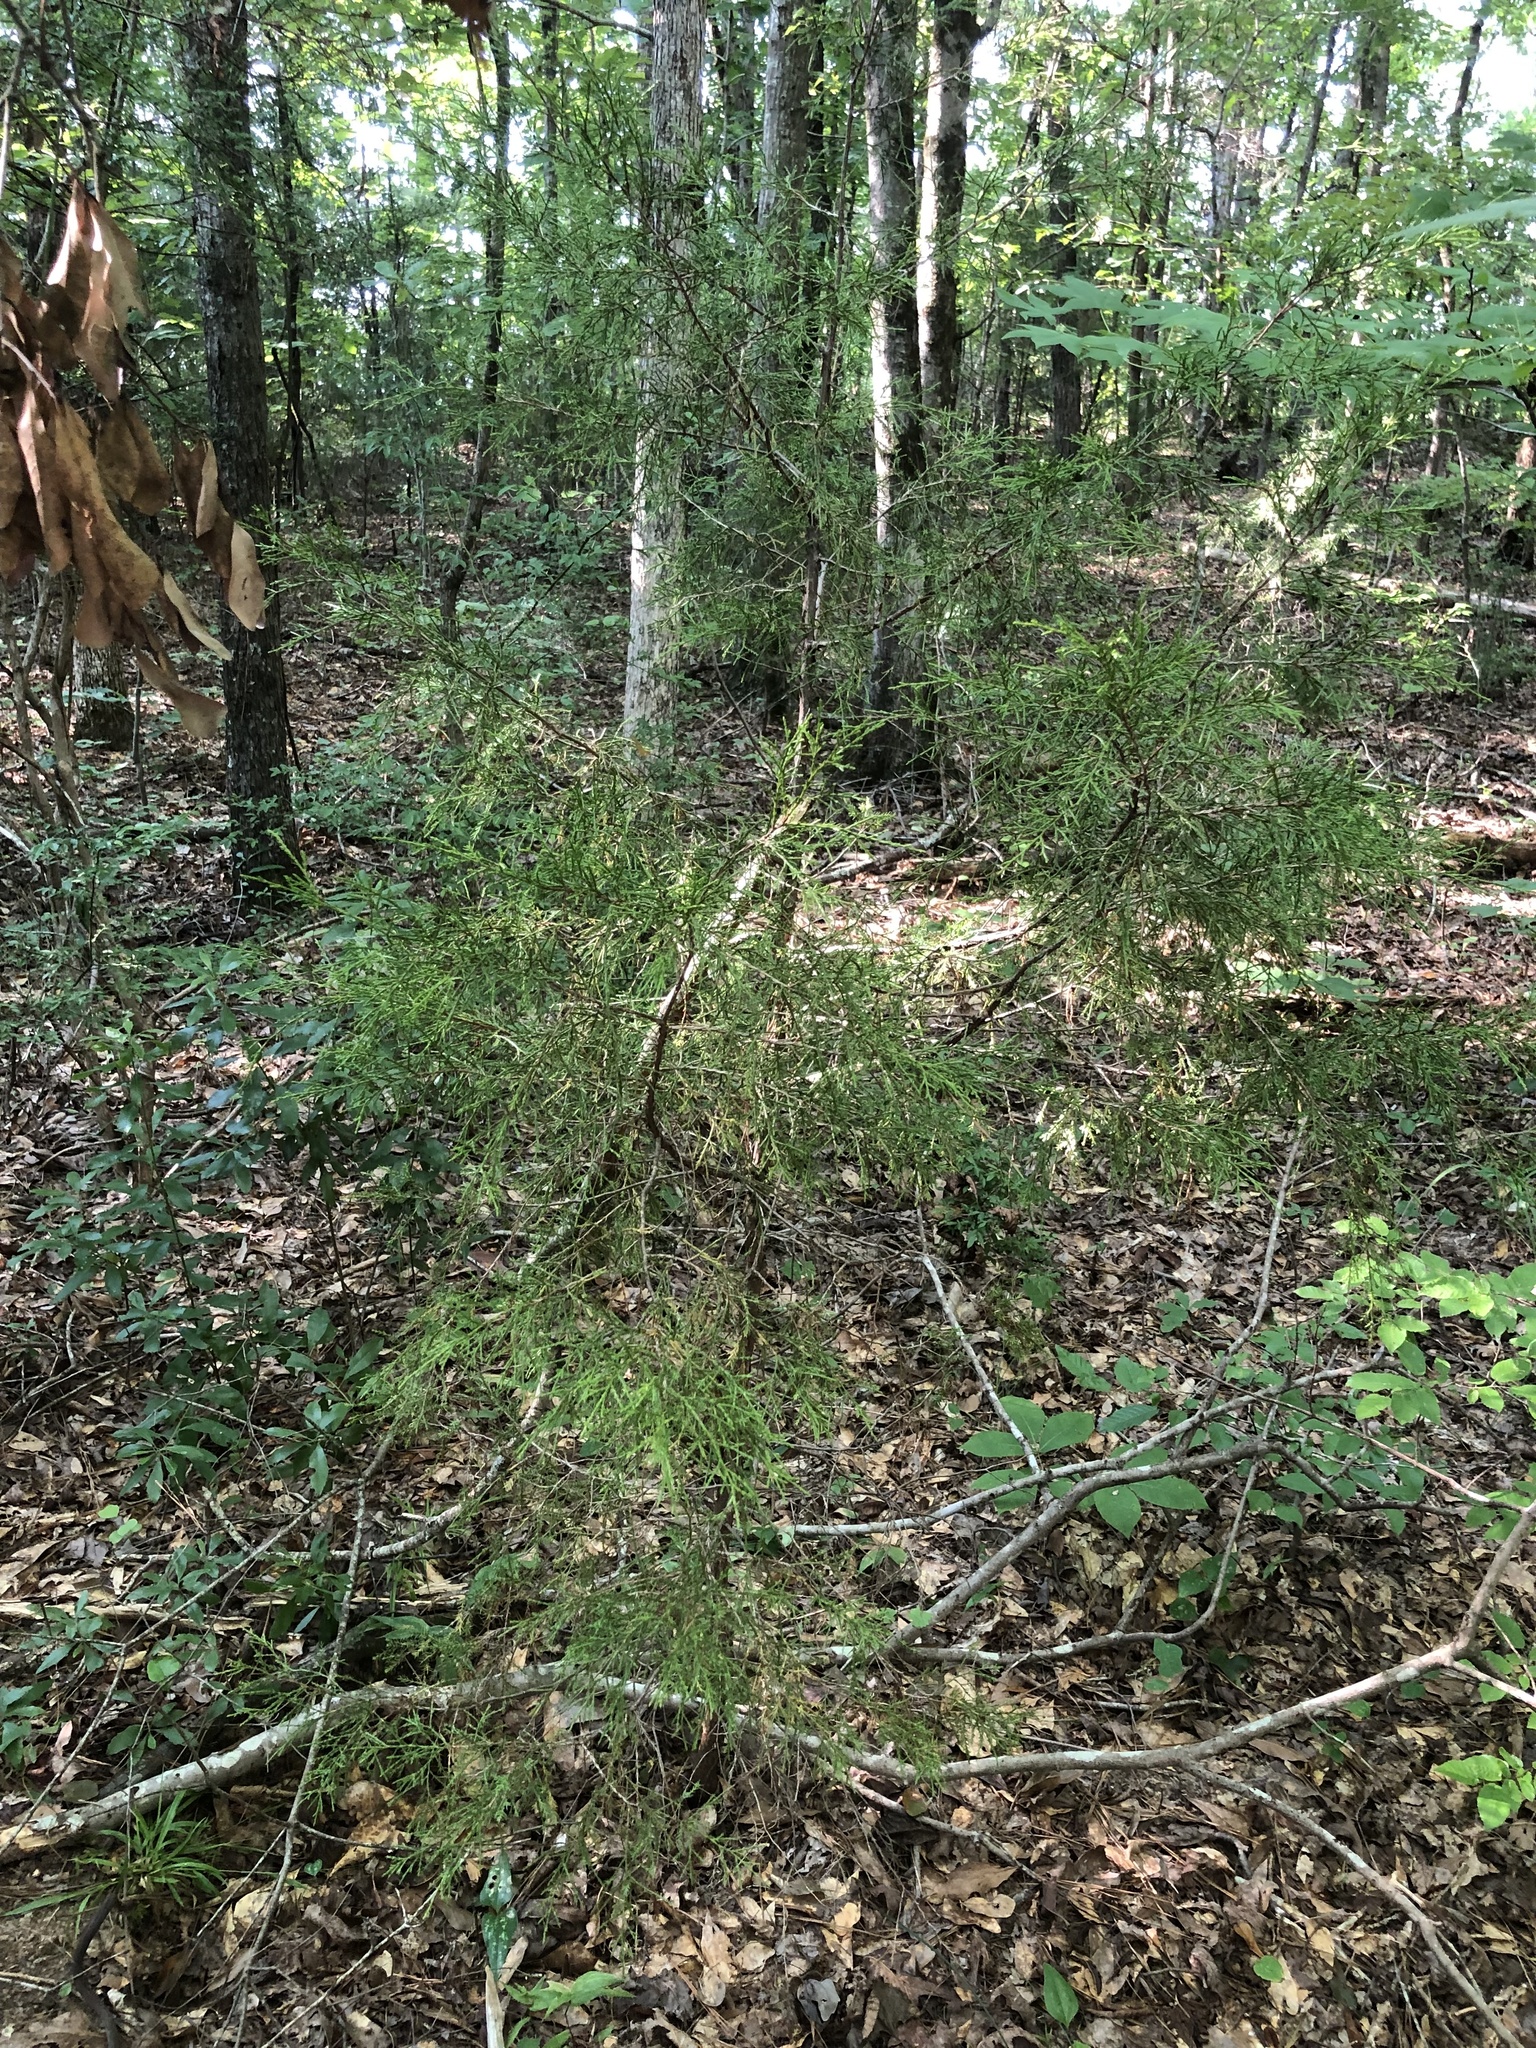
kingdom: Plantae
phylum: Tracheophyta
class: Pinopsida
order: Pinales
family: Cupressaceae
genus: Juniperus
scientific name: Juniperus virginiana
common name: Red juniper
